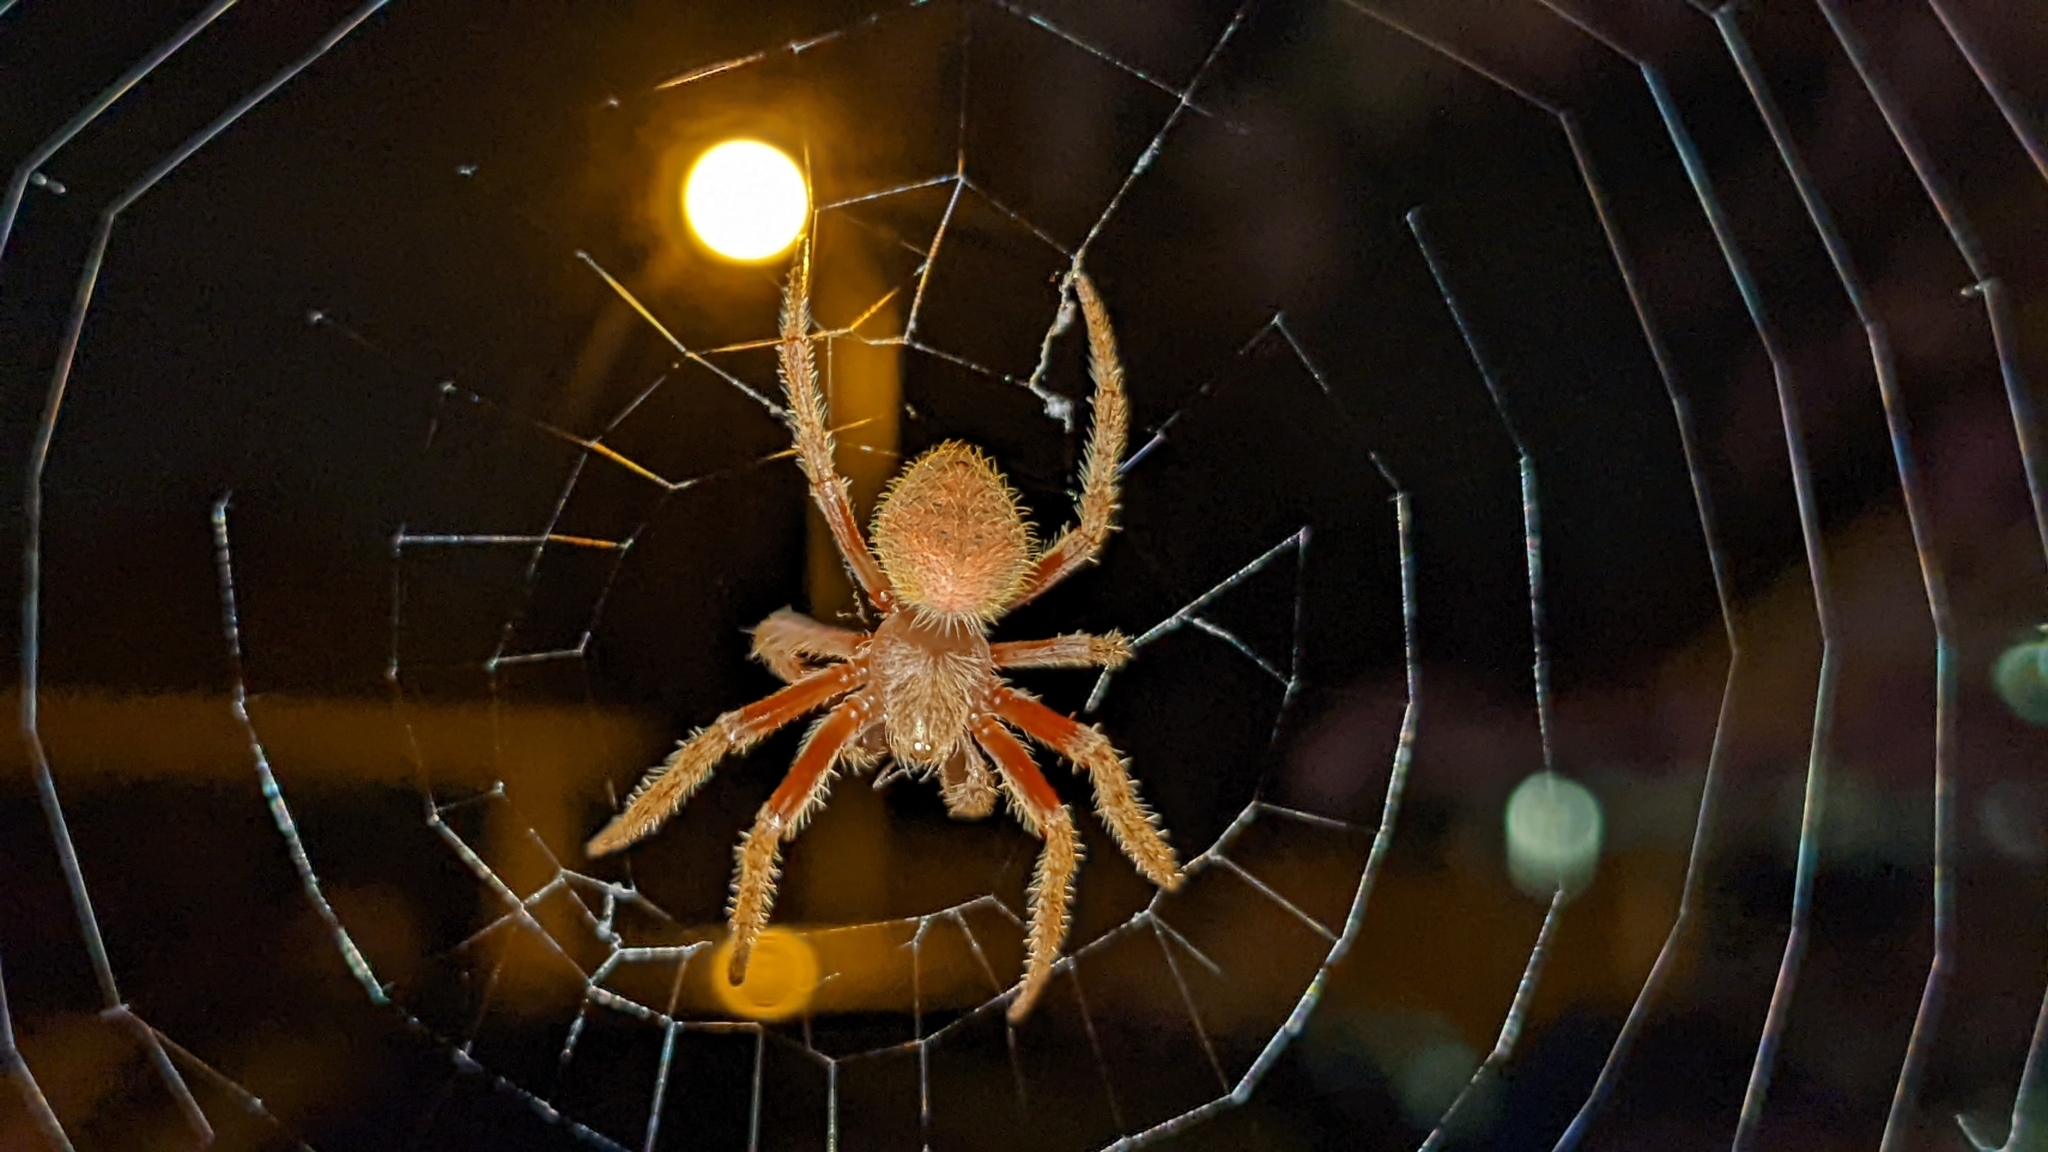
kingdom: Animalia
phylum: Arthropoda
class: Arachnida
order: Araneae
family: Araneidae
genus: Eriophora
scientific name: Eriophora ravilla
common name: Orb weavers
